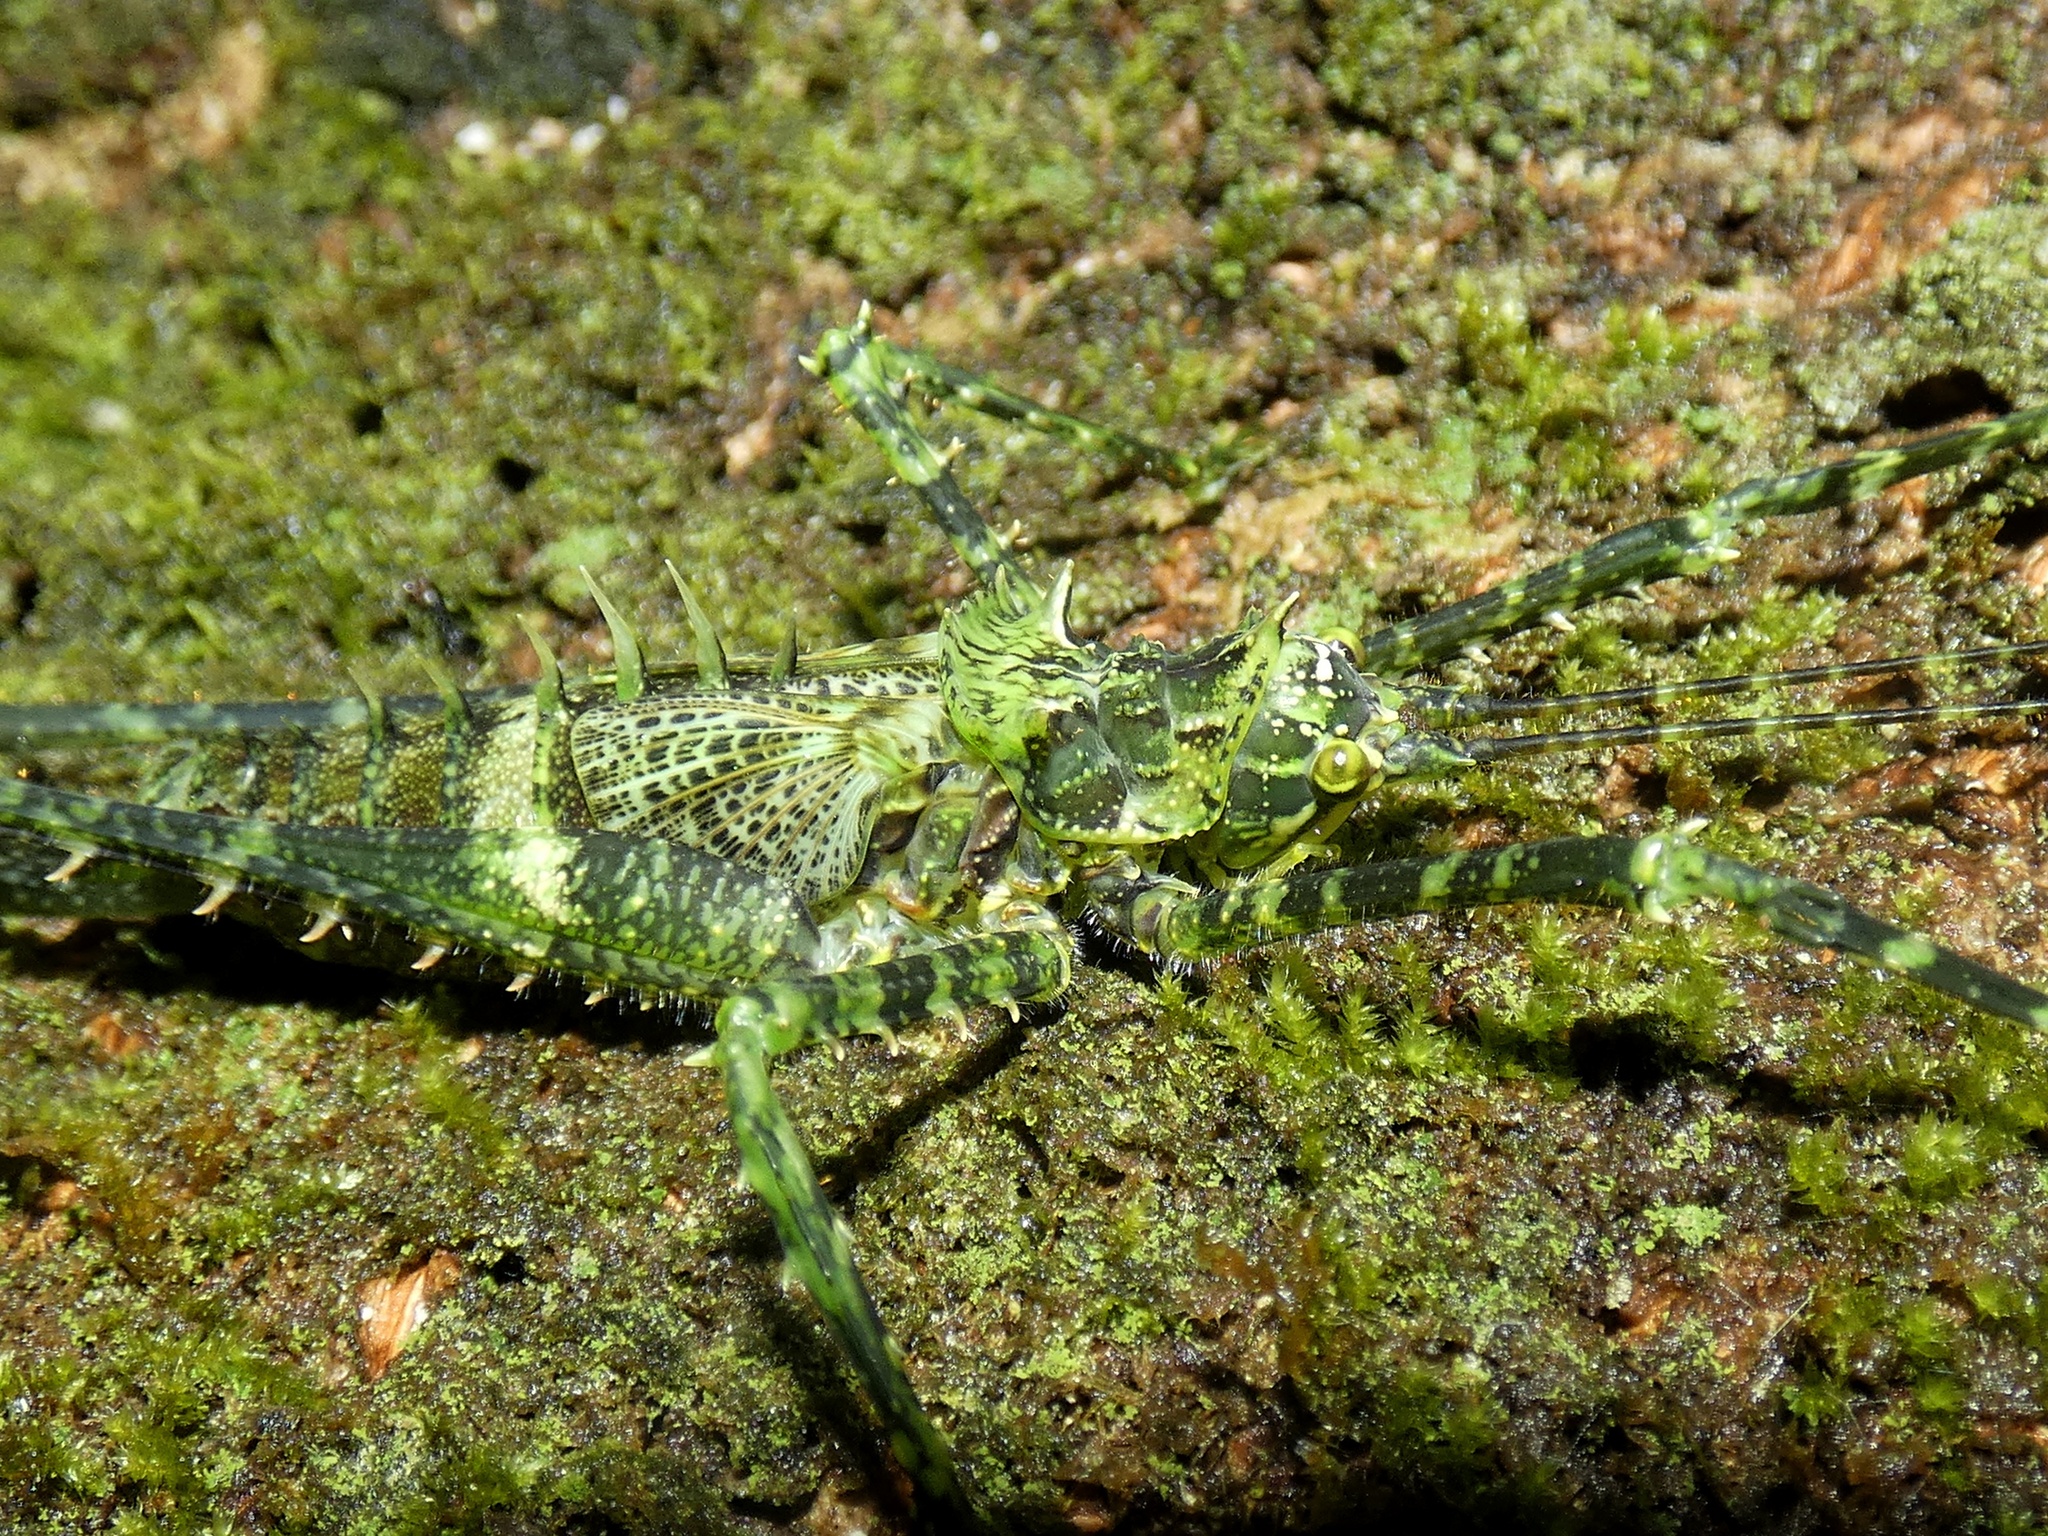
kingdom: Animalia
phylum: Arthropoda
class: Insecta
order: Orthoptera
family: Tettigoniidae
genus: Championica
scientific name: Championica montana
